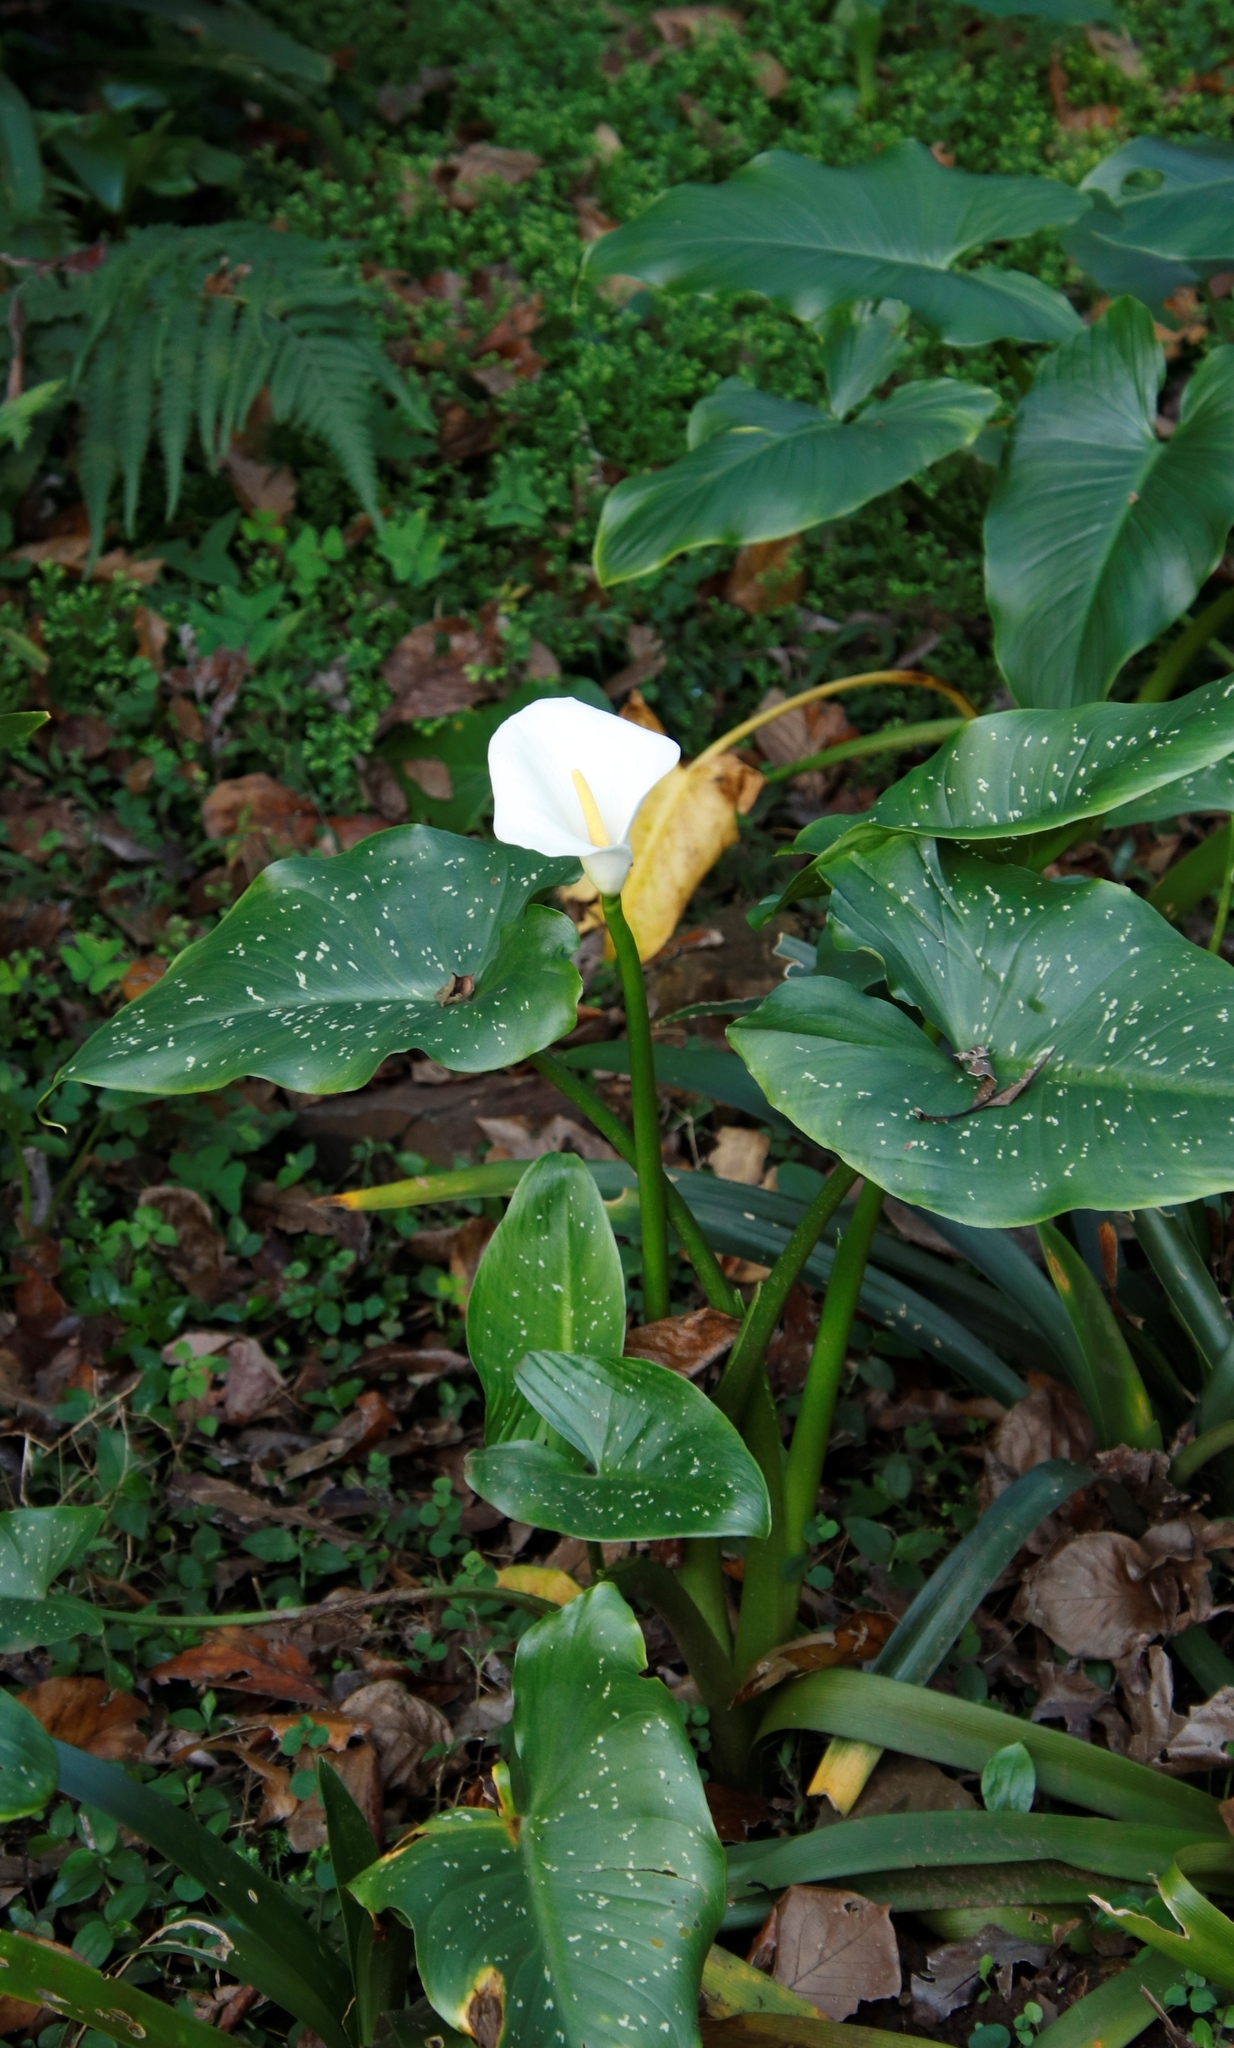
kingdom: Plantae
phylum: Tracheophyta
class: Liliopsida
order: Alismatales
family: Araceae
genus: Zantedeschia
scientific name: Zantedeschia albomaculata
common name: Spotted calla lily
